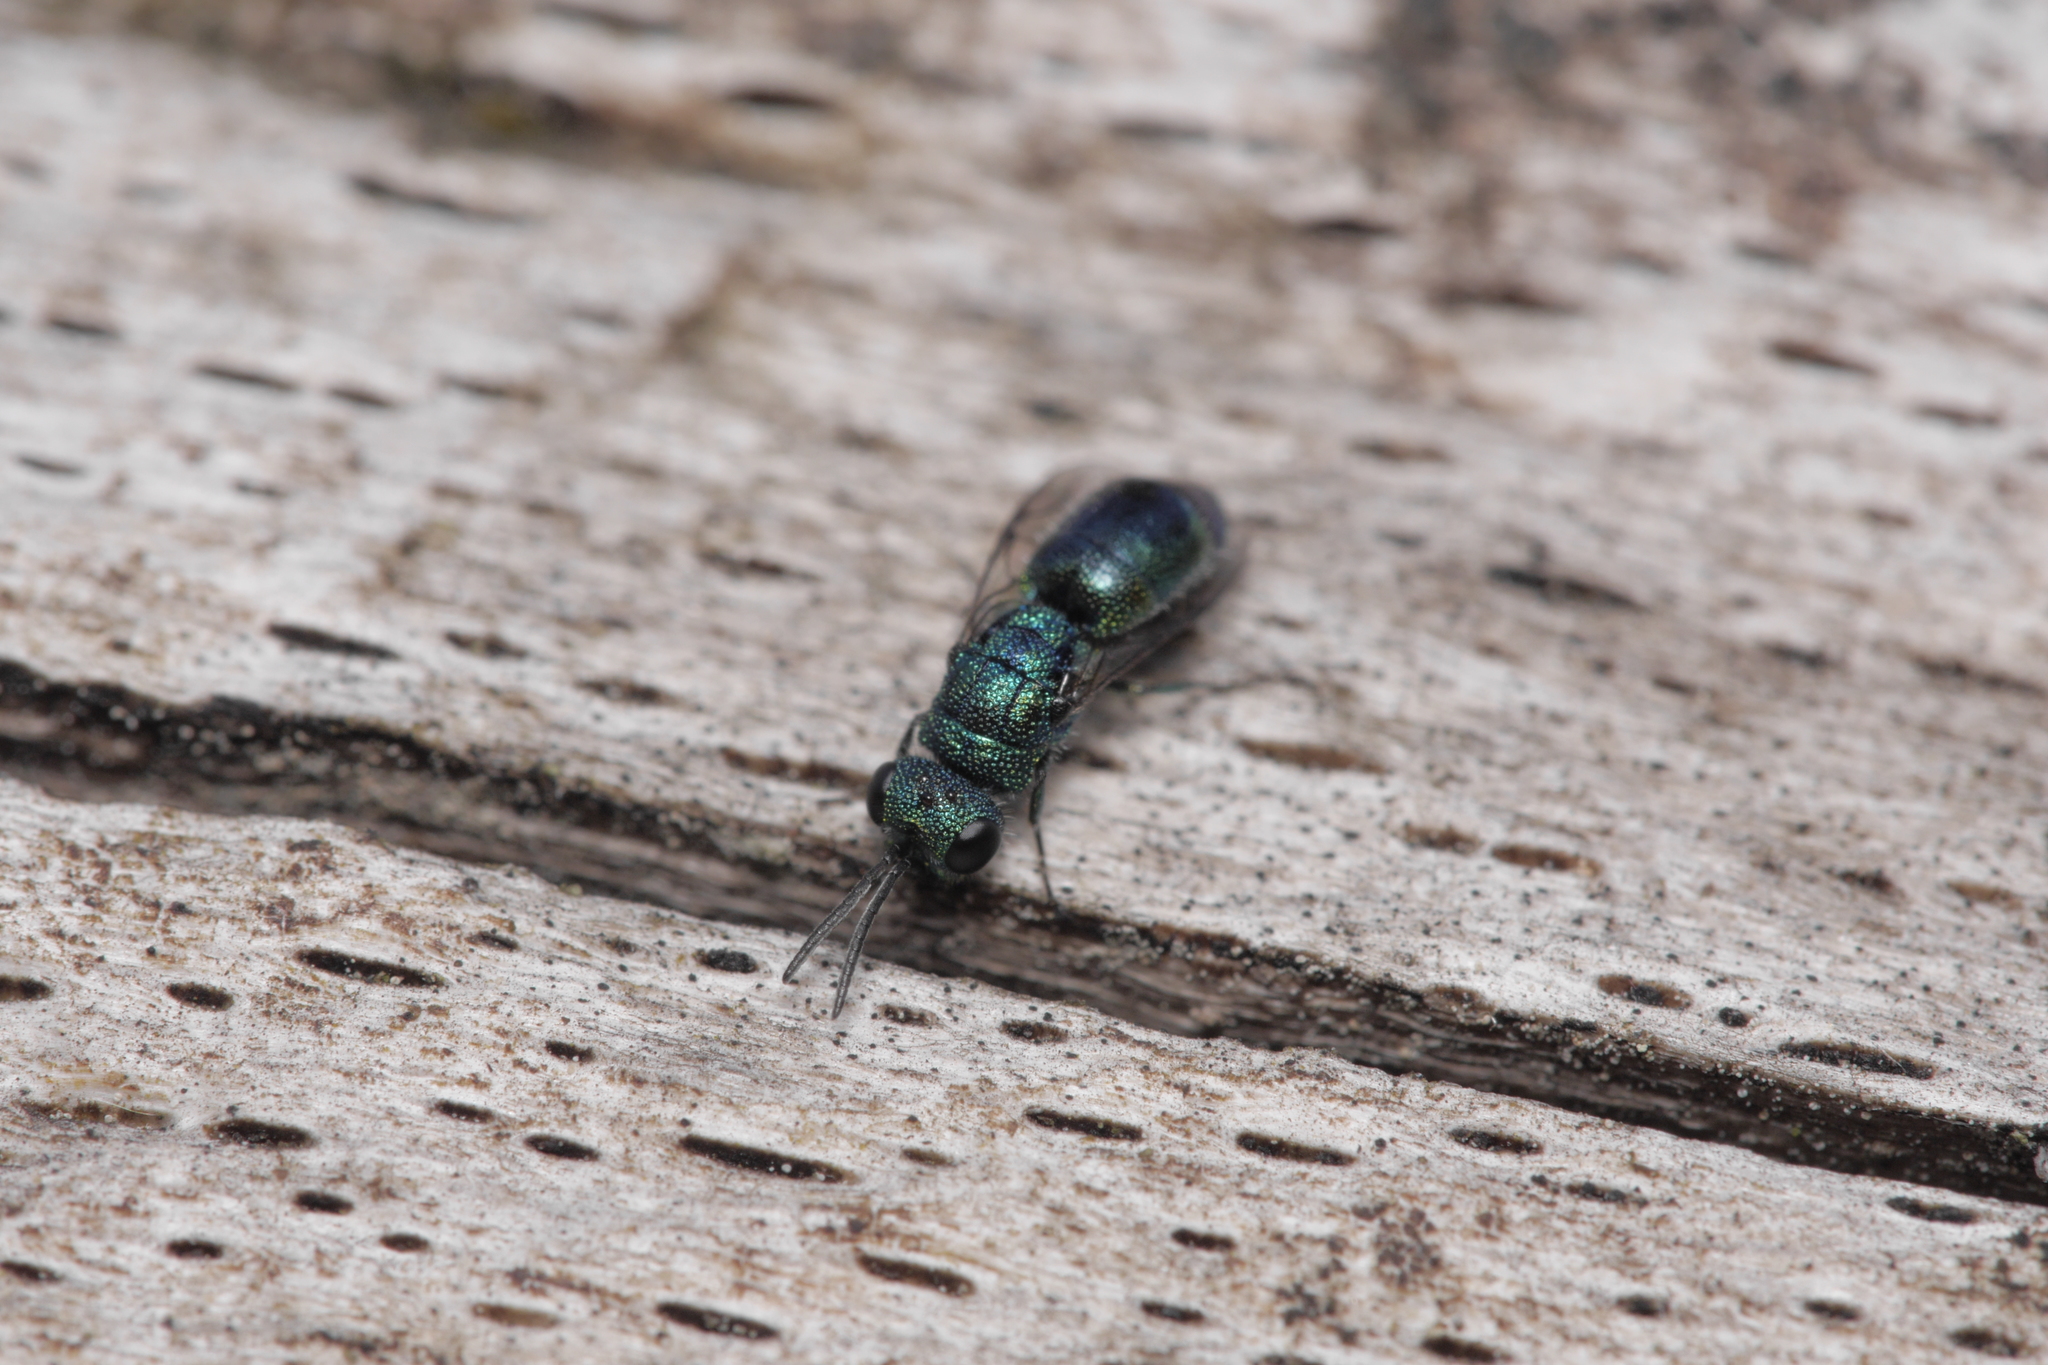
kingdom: Animalia
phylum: Arthropoda
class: Insecta
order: Hymenoptera
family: Pompilidae
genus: Pepsis
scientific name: Pepsis cyanea
